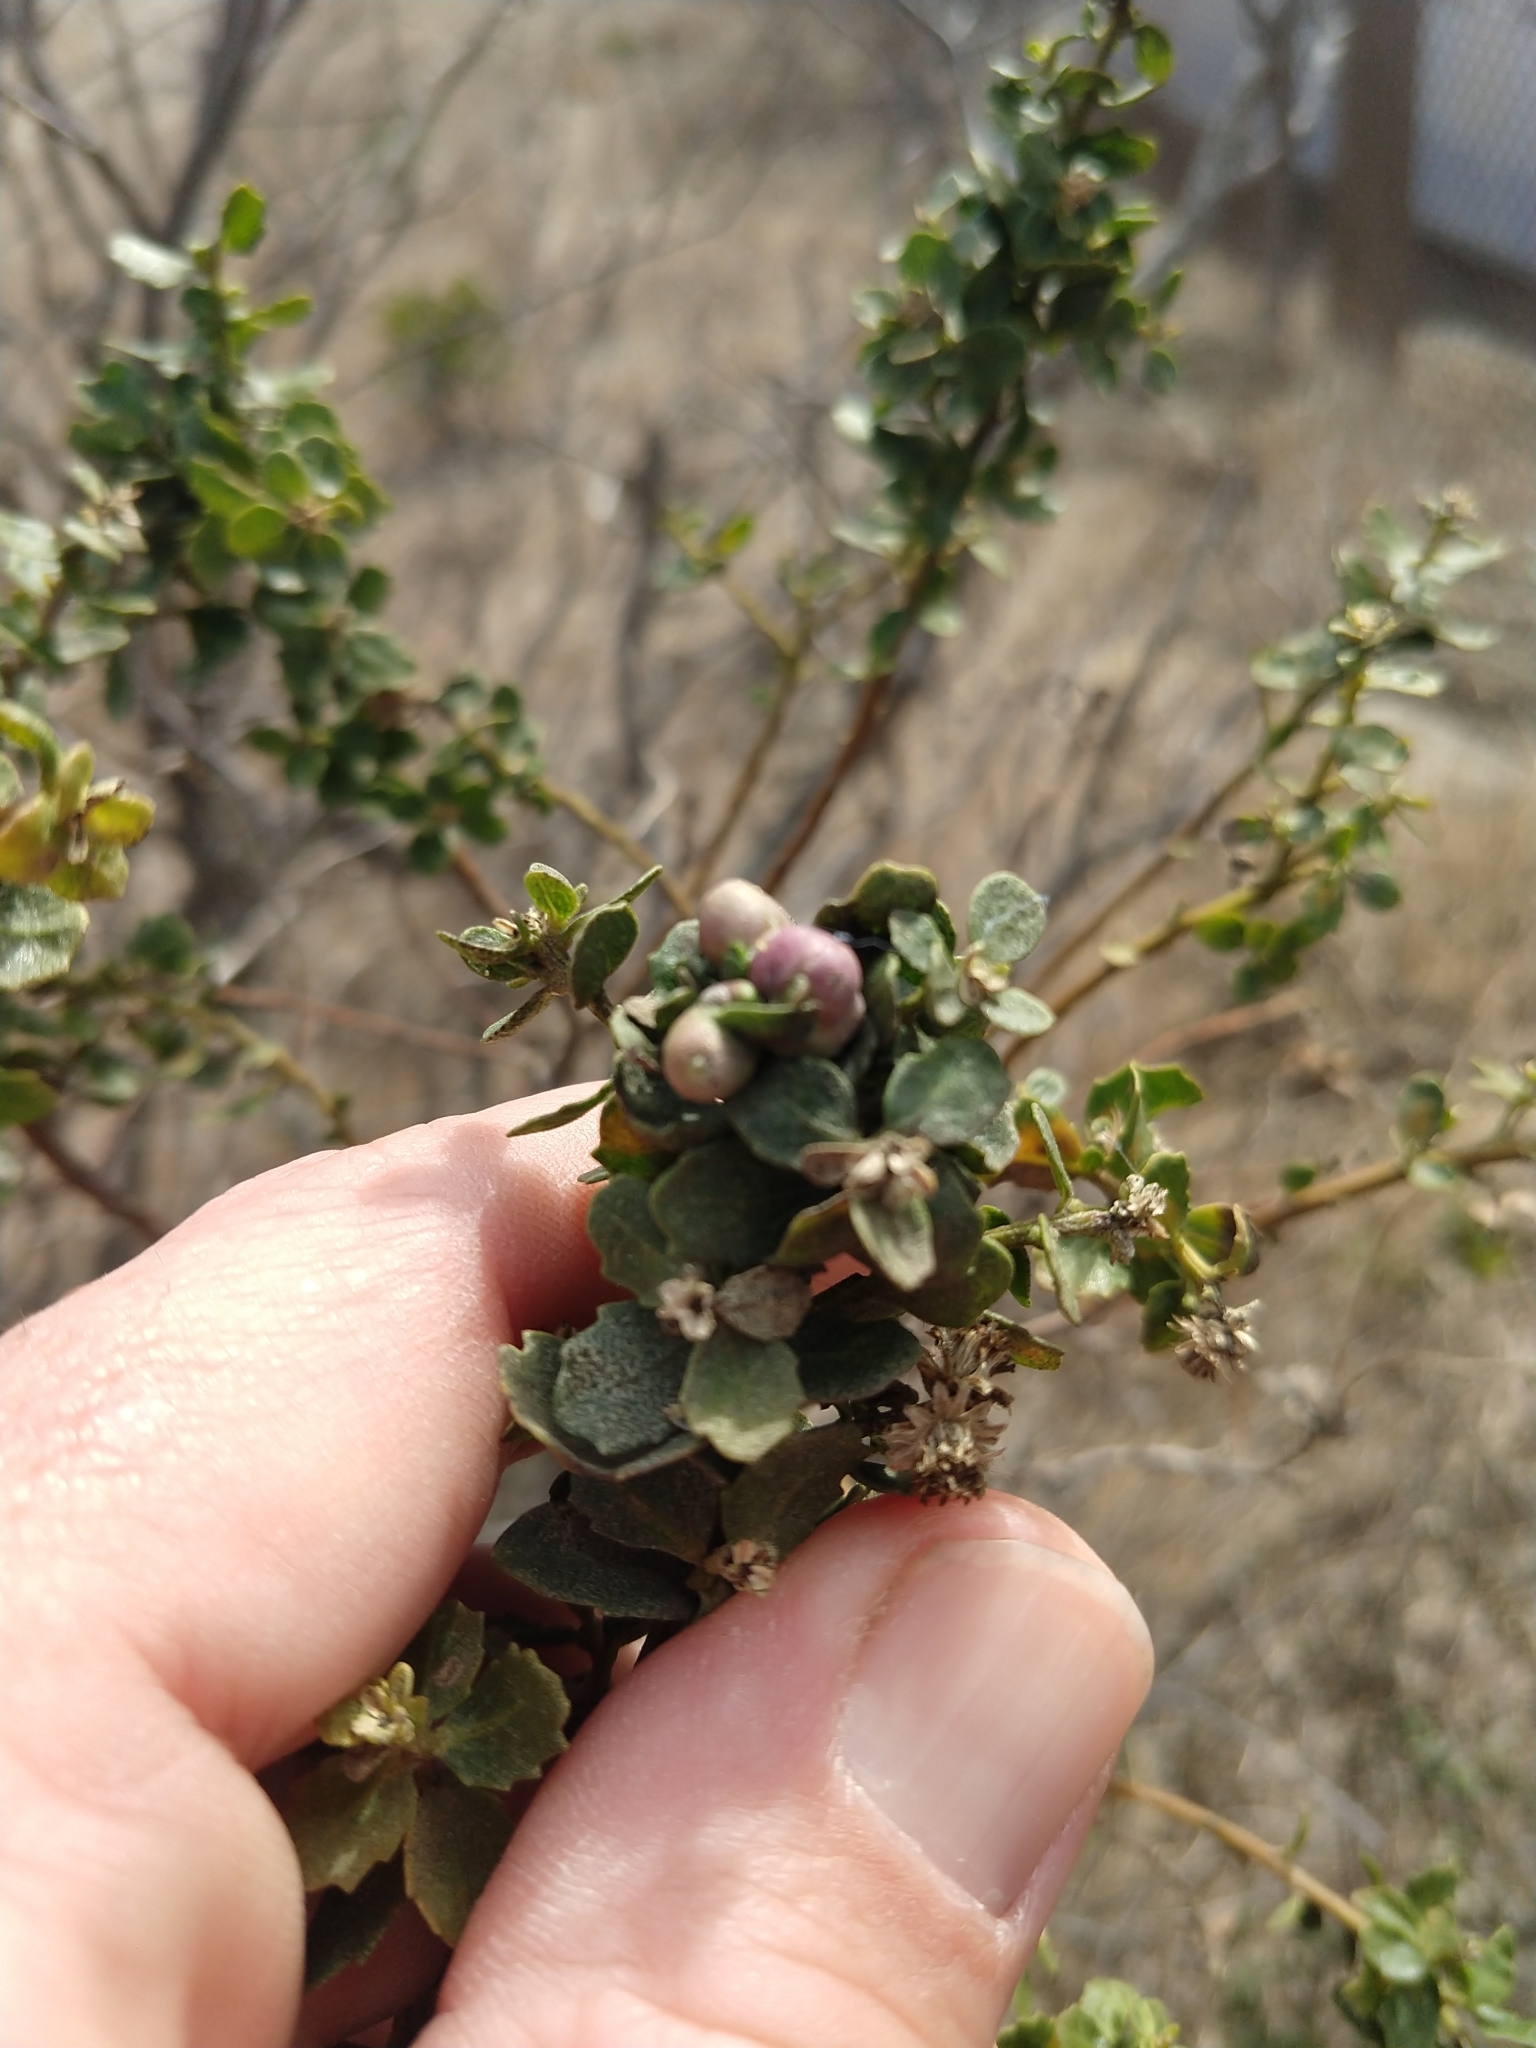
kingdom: Animalia
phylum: Arthropoda
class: Insecta
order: Diptera
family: Cecidomyiidae
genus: Rhopalomyia
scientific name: Rhopalomyia californica
